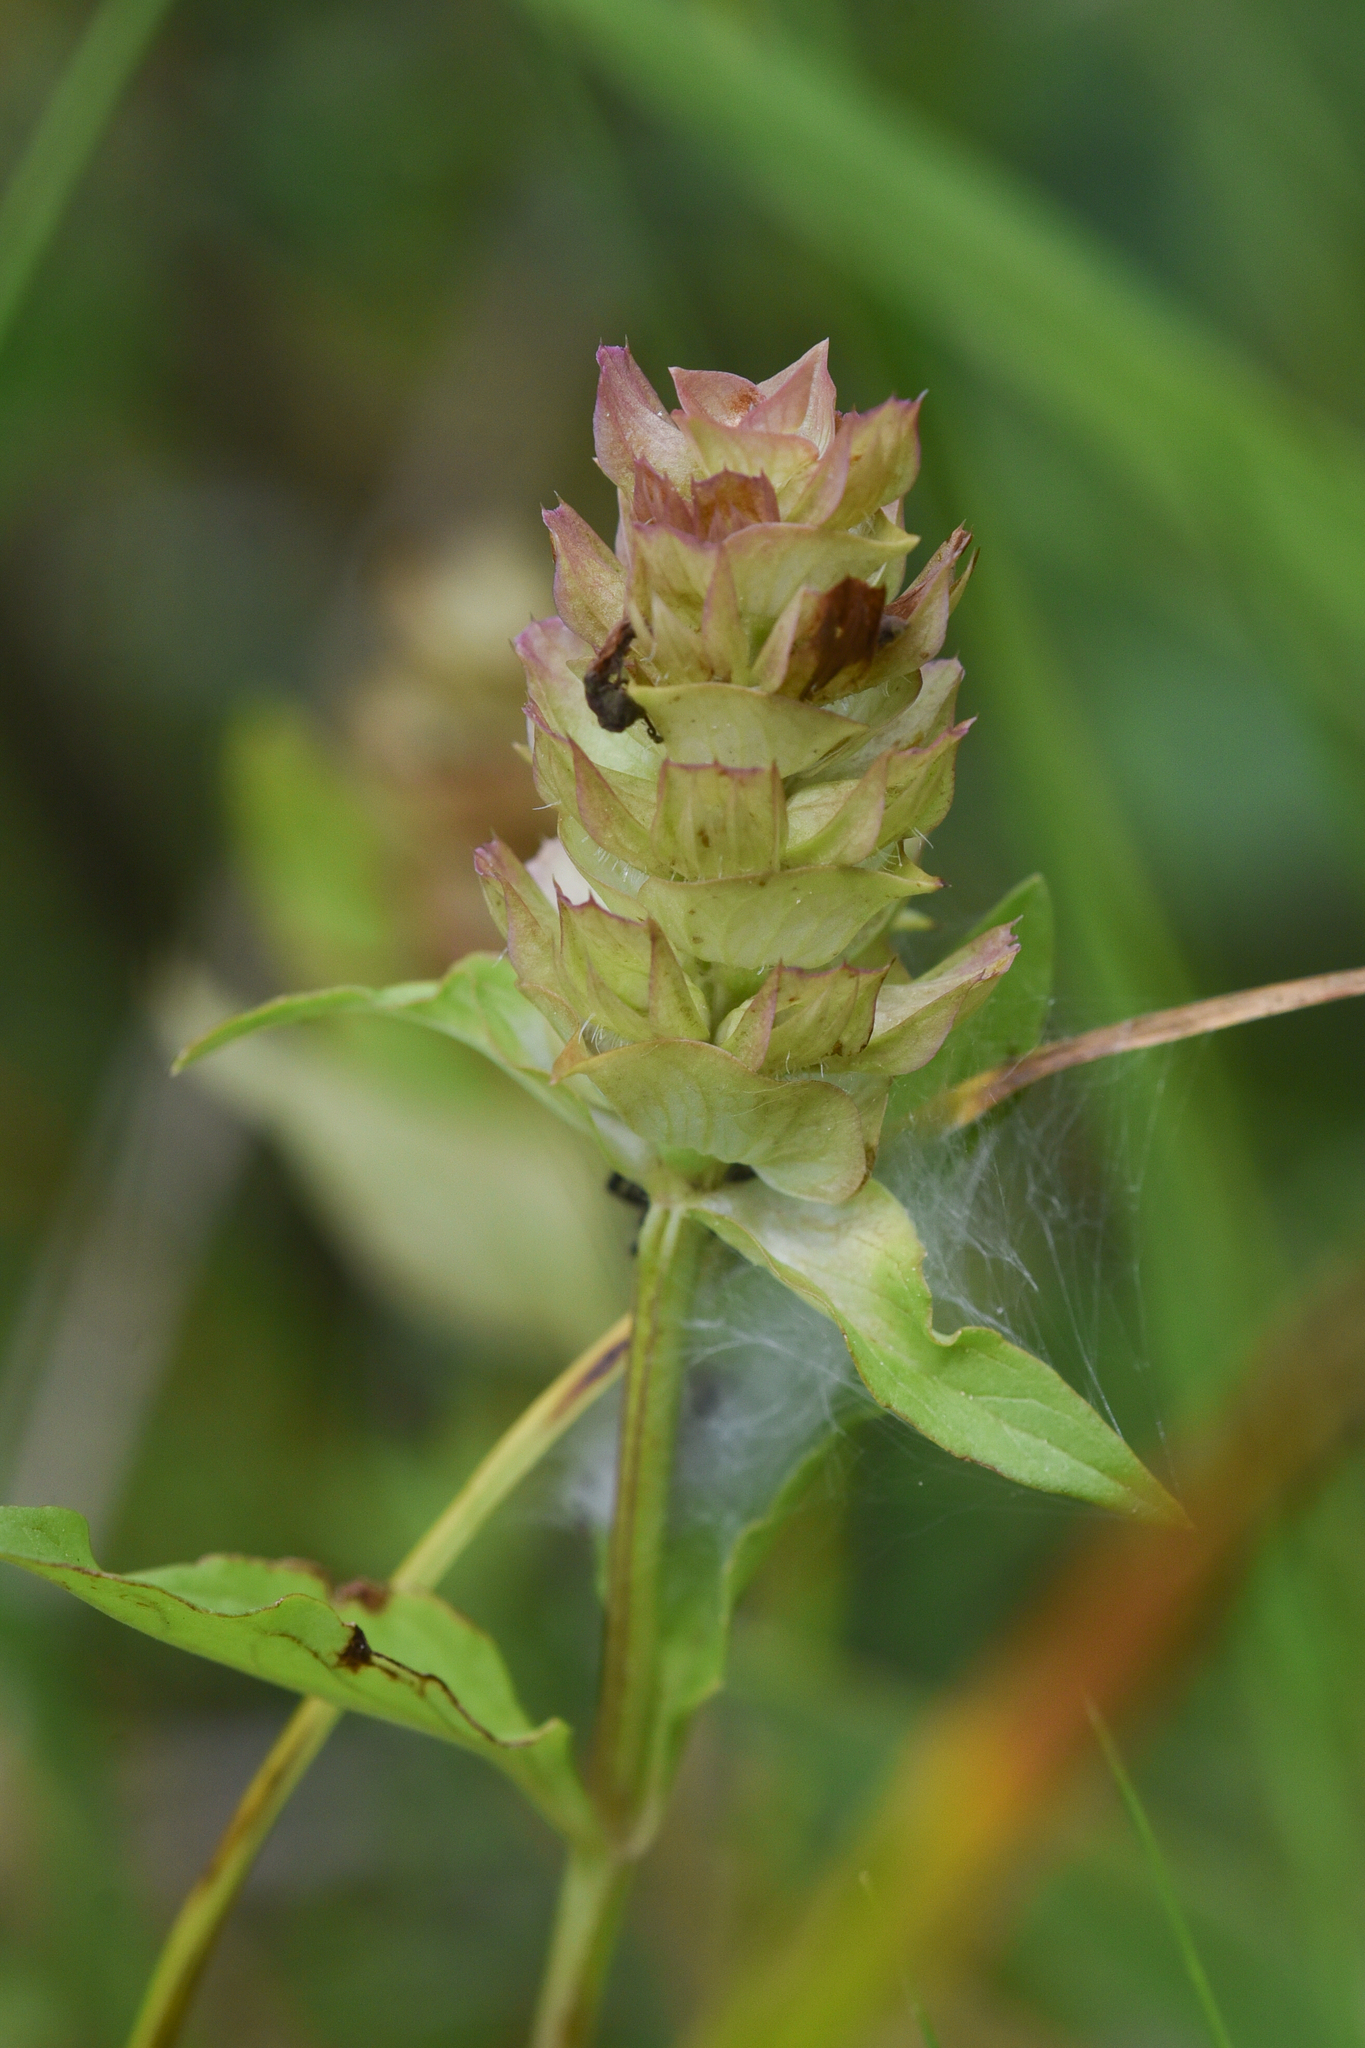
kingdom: Plantae
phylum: Tracheophyta
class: Magnoliopsida
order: Lamiales
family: Lamiaceae
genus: Prunella
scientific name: Prunella vulgaris
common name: Heal-all
